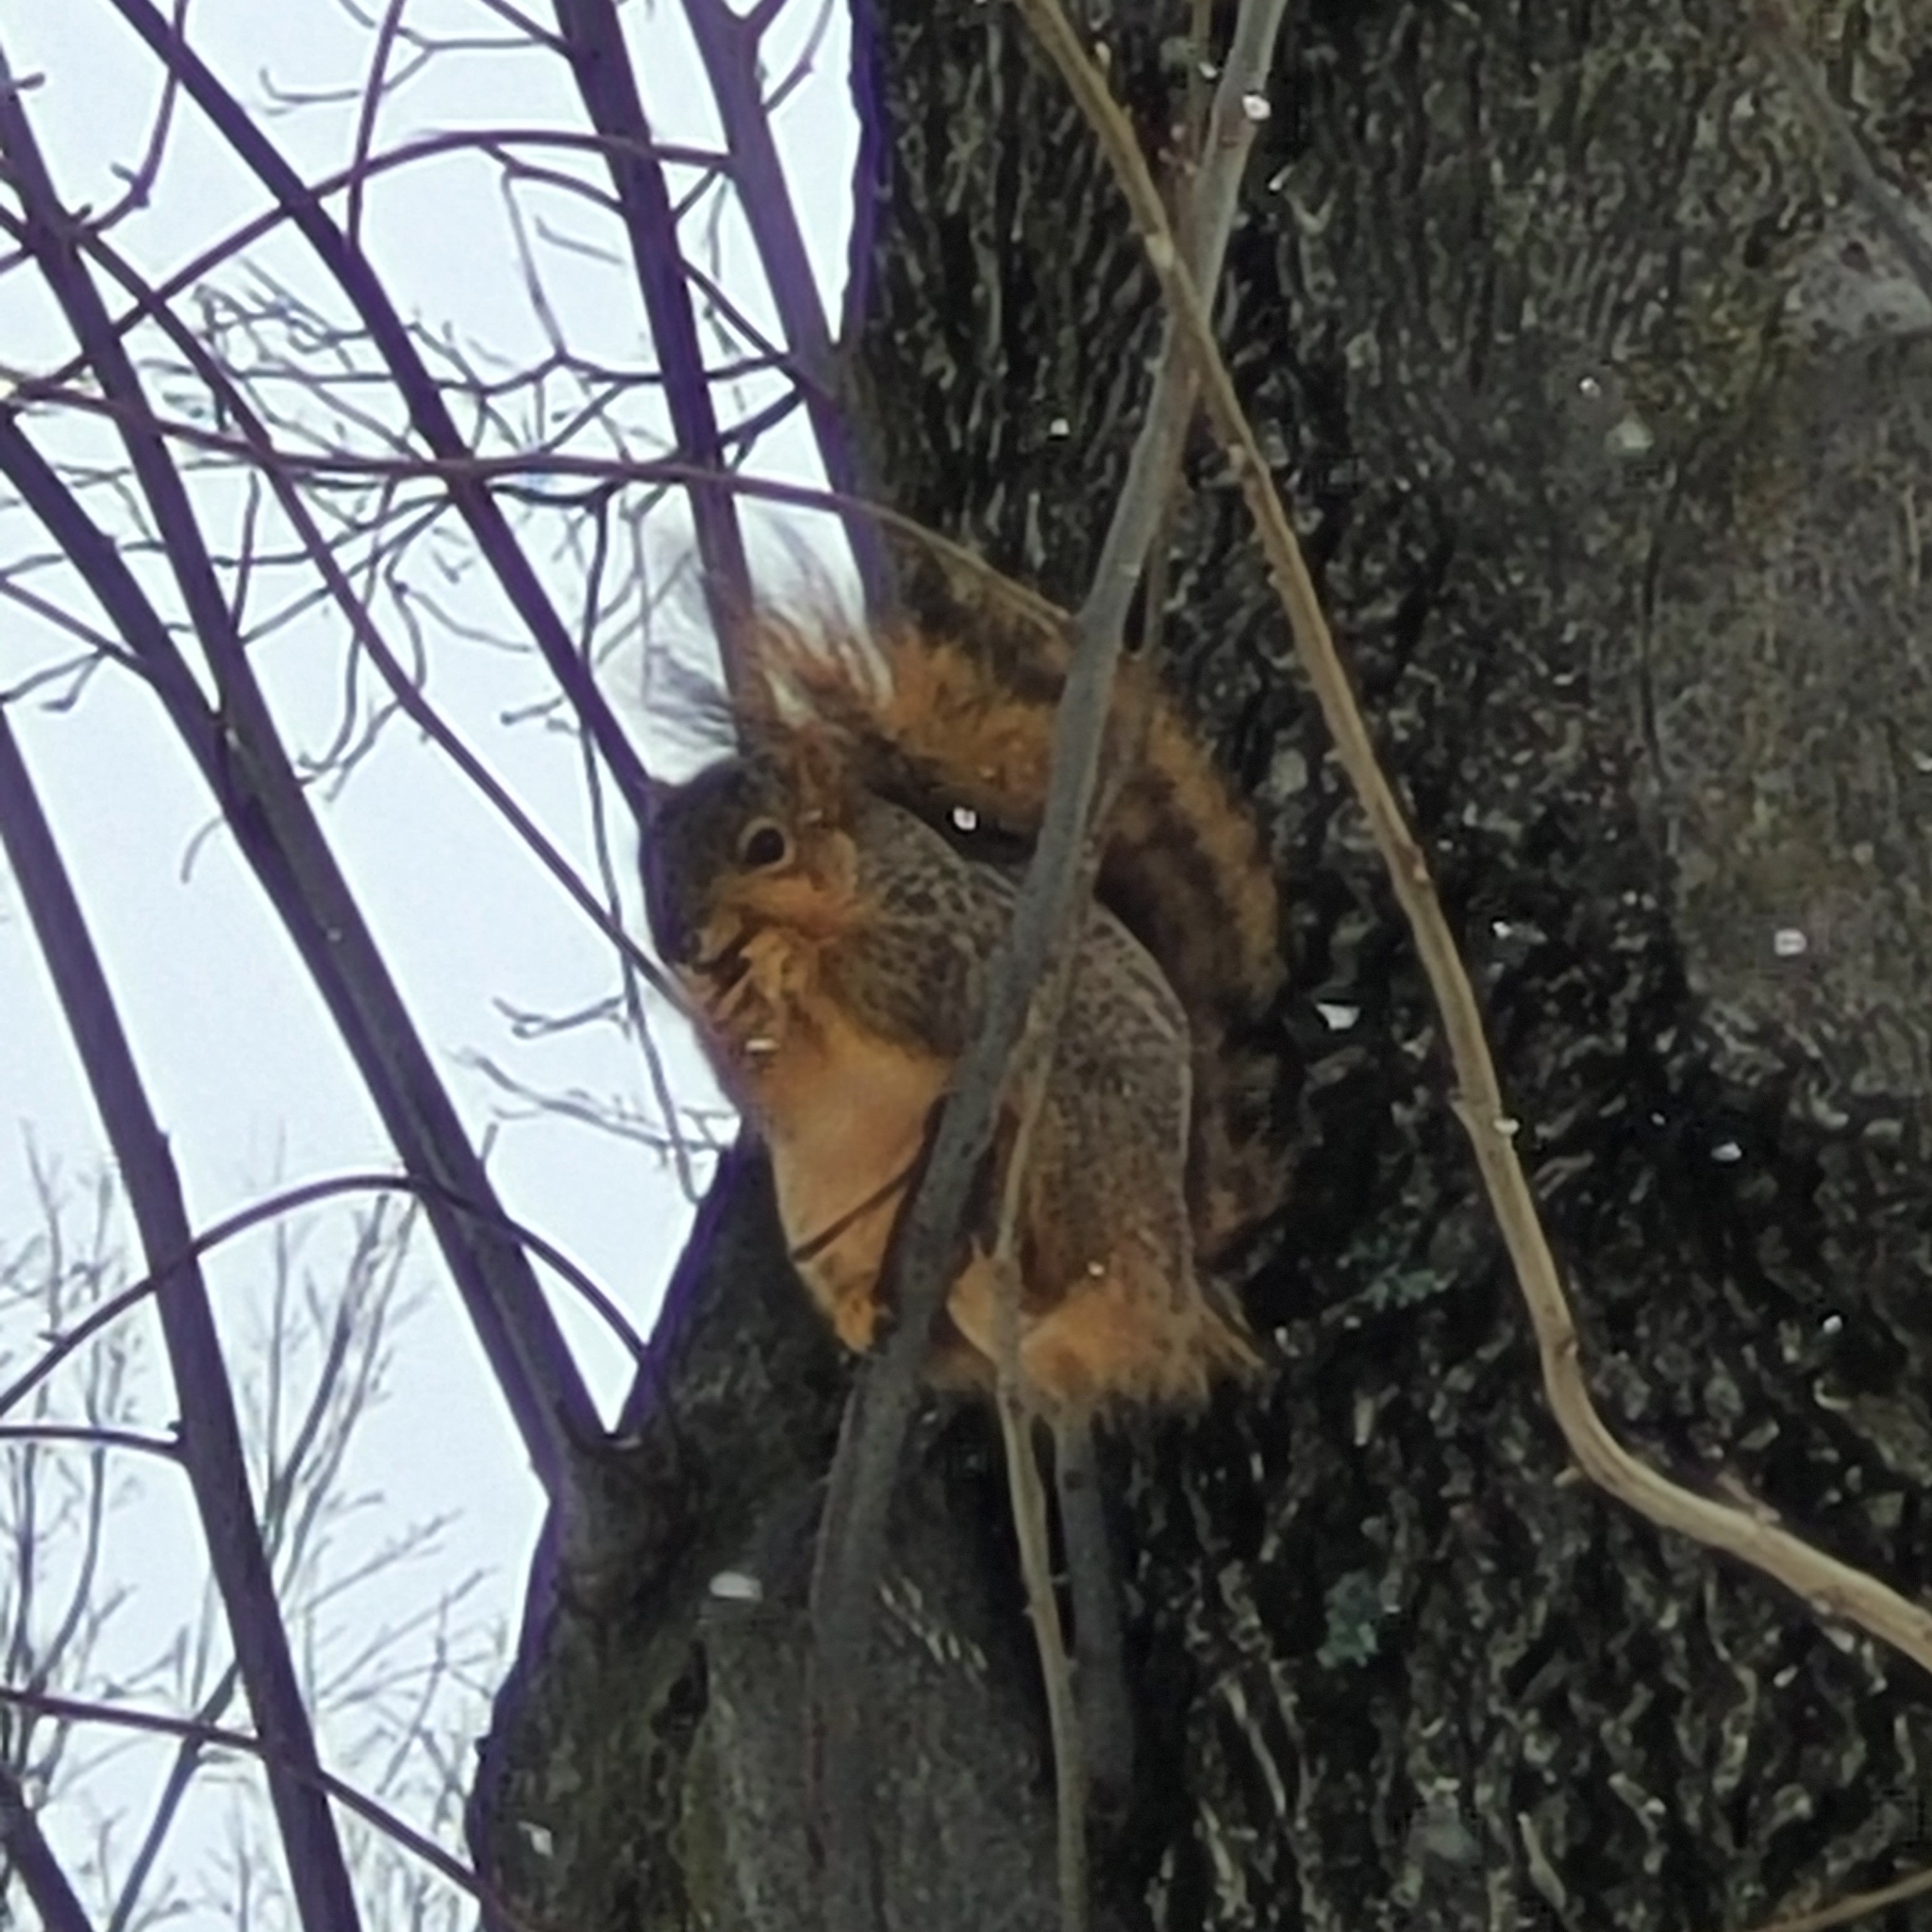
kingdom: Animalia
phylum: Chordata
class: Mammalia
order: Rodentia
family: Sciuridae
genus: Sciurus
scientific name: Sciurus niger
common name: Fox squirrel
